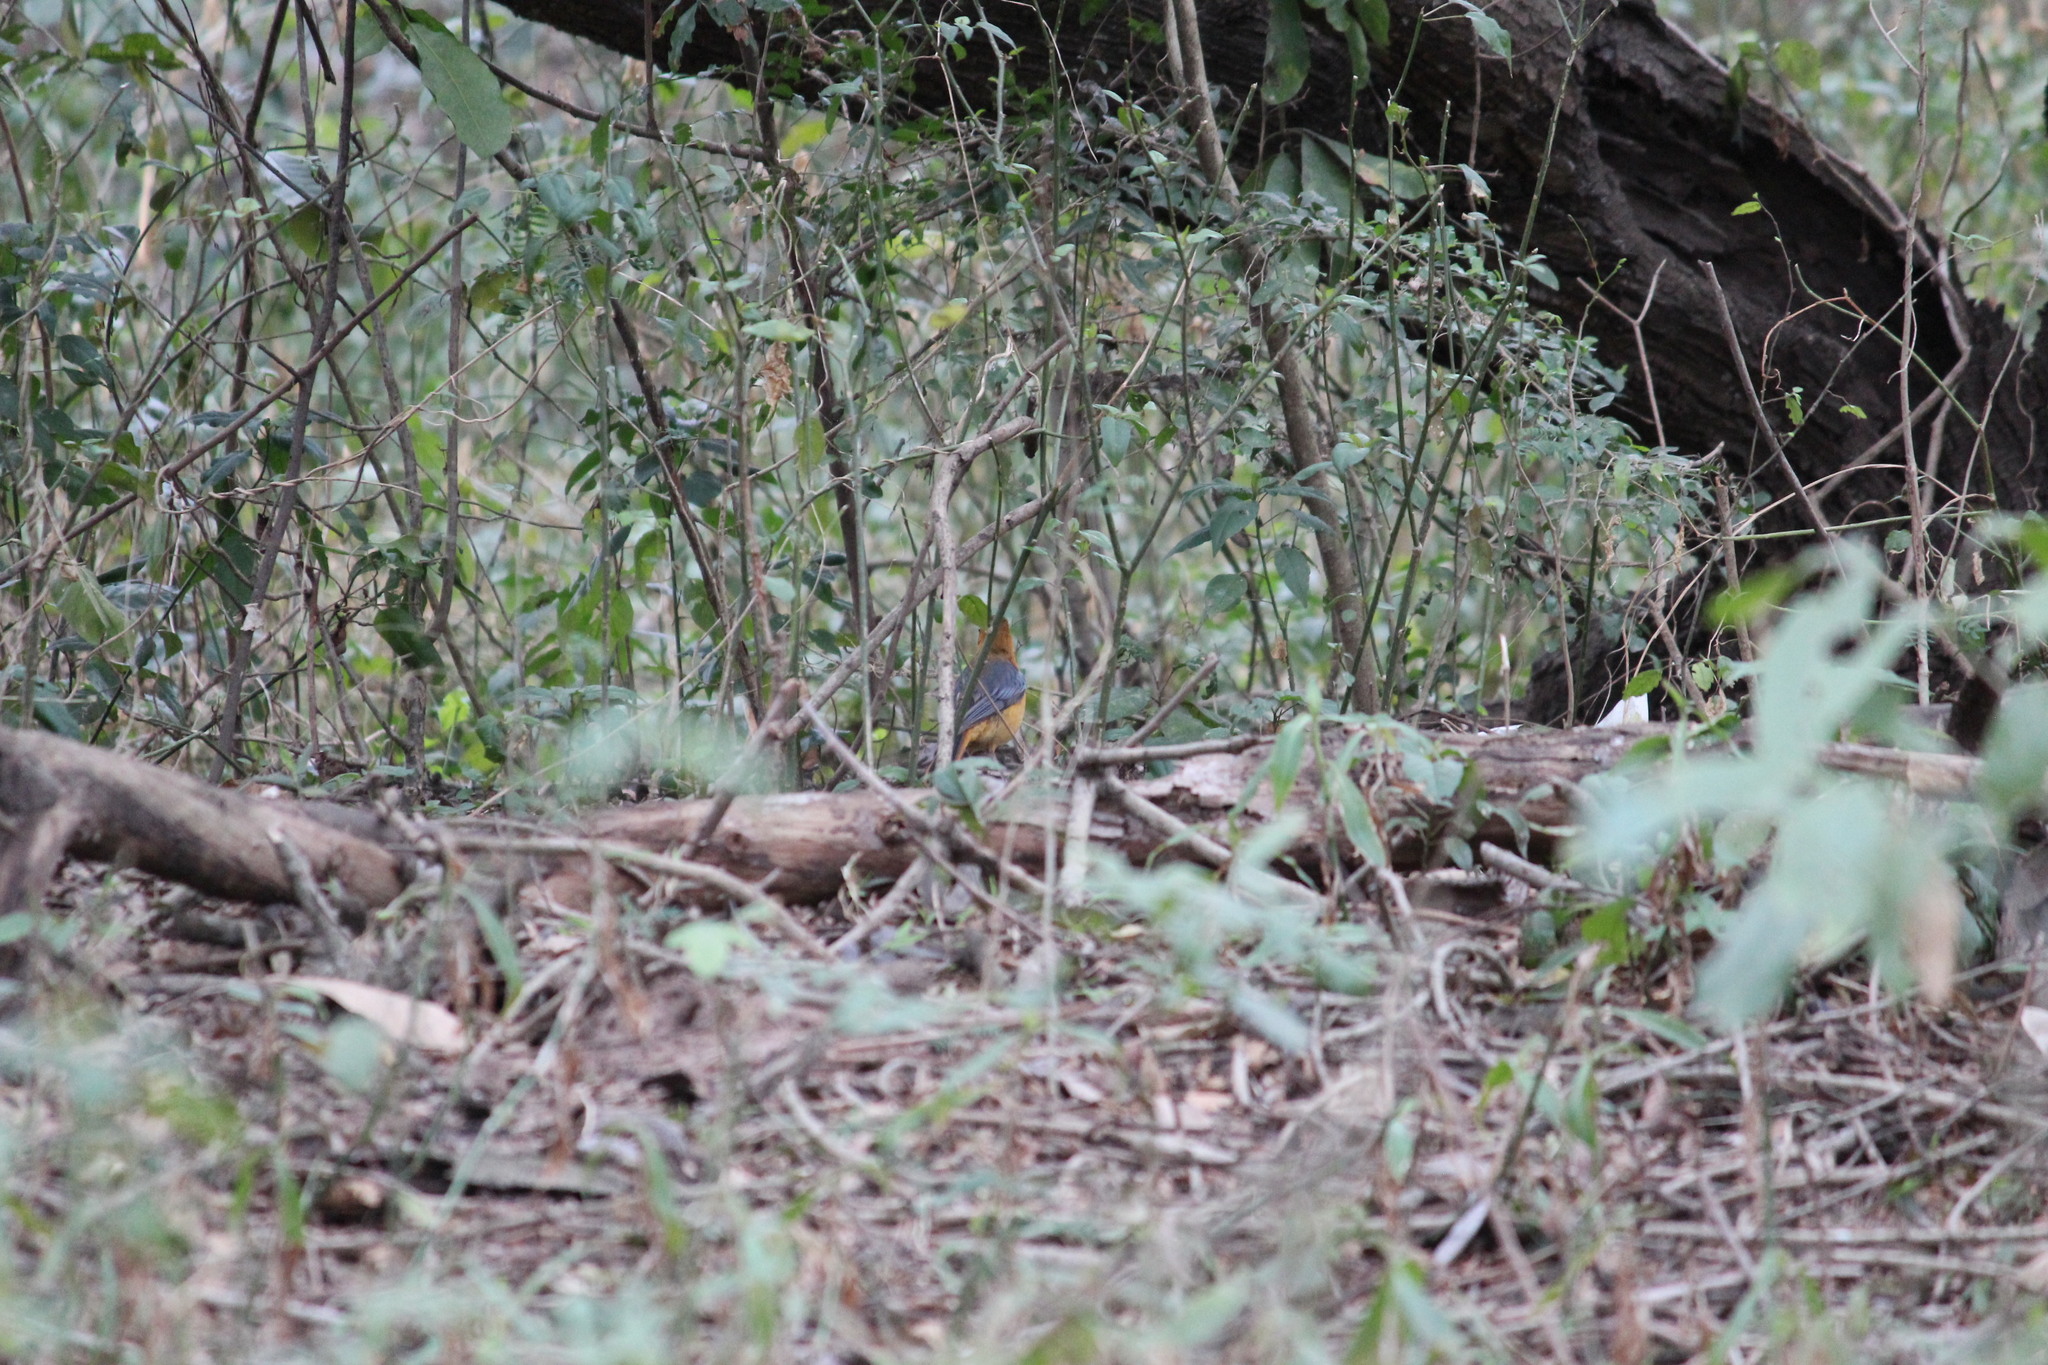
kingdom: Animalia
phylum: Chordata
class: Aves
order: Passeriformes
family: Muscicapidae
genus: Cossypha
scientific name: Cossypha natalensis
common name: Red-capped robin-chat
